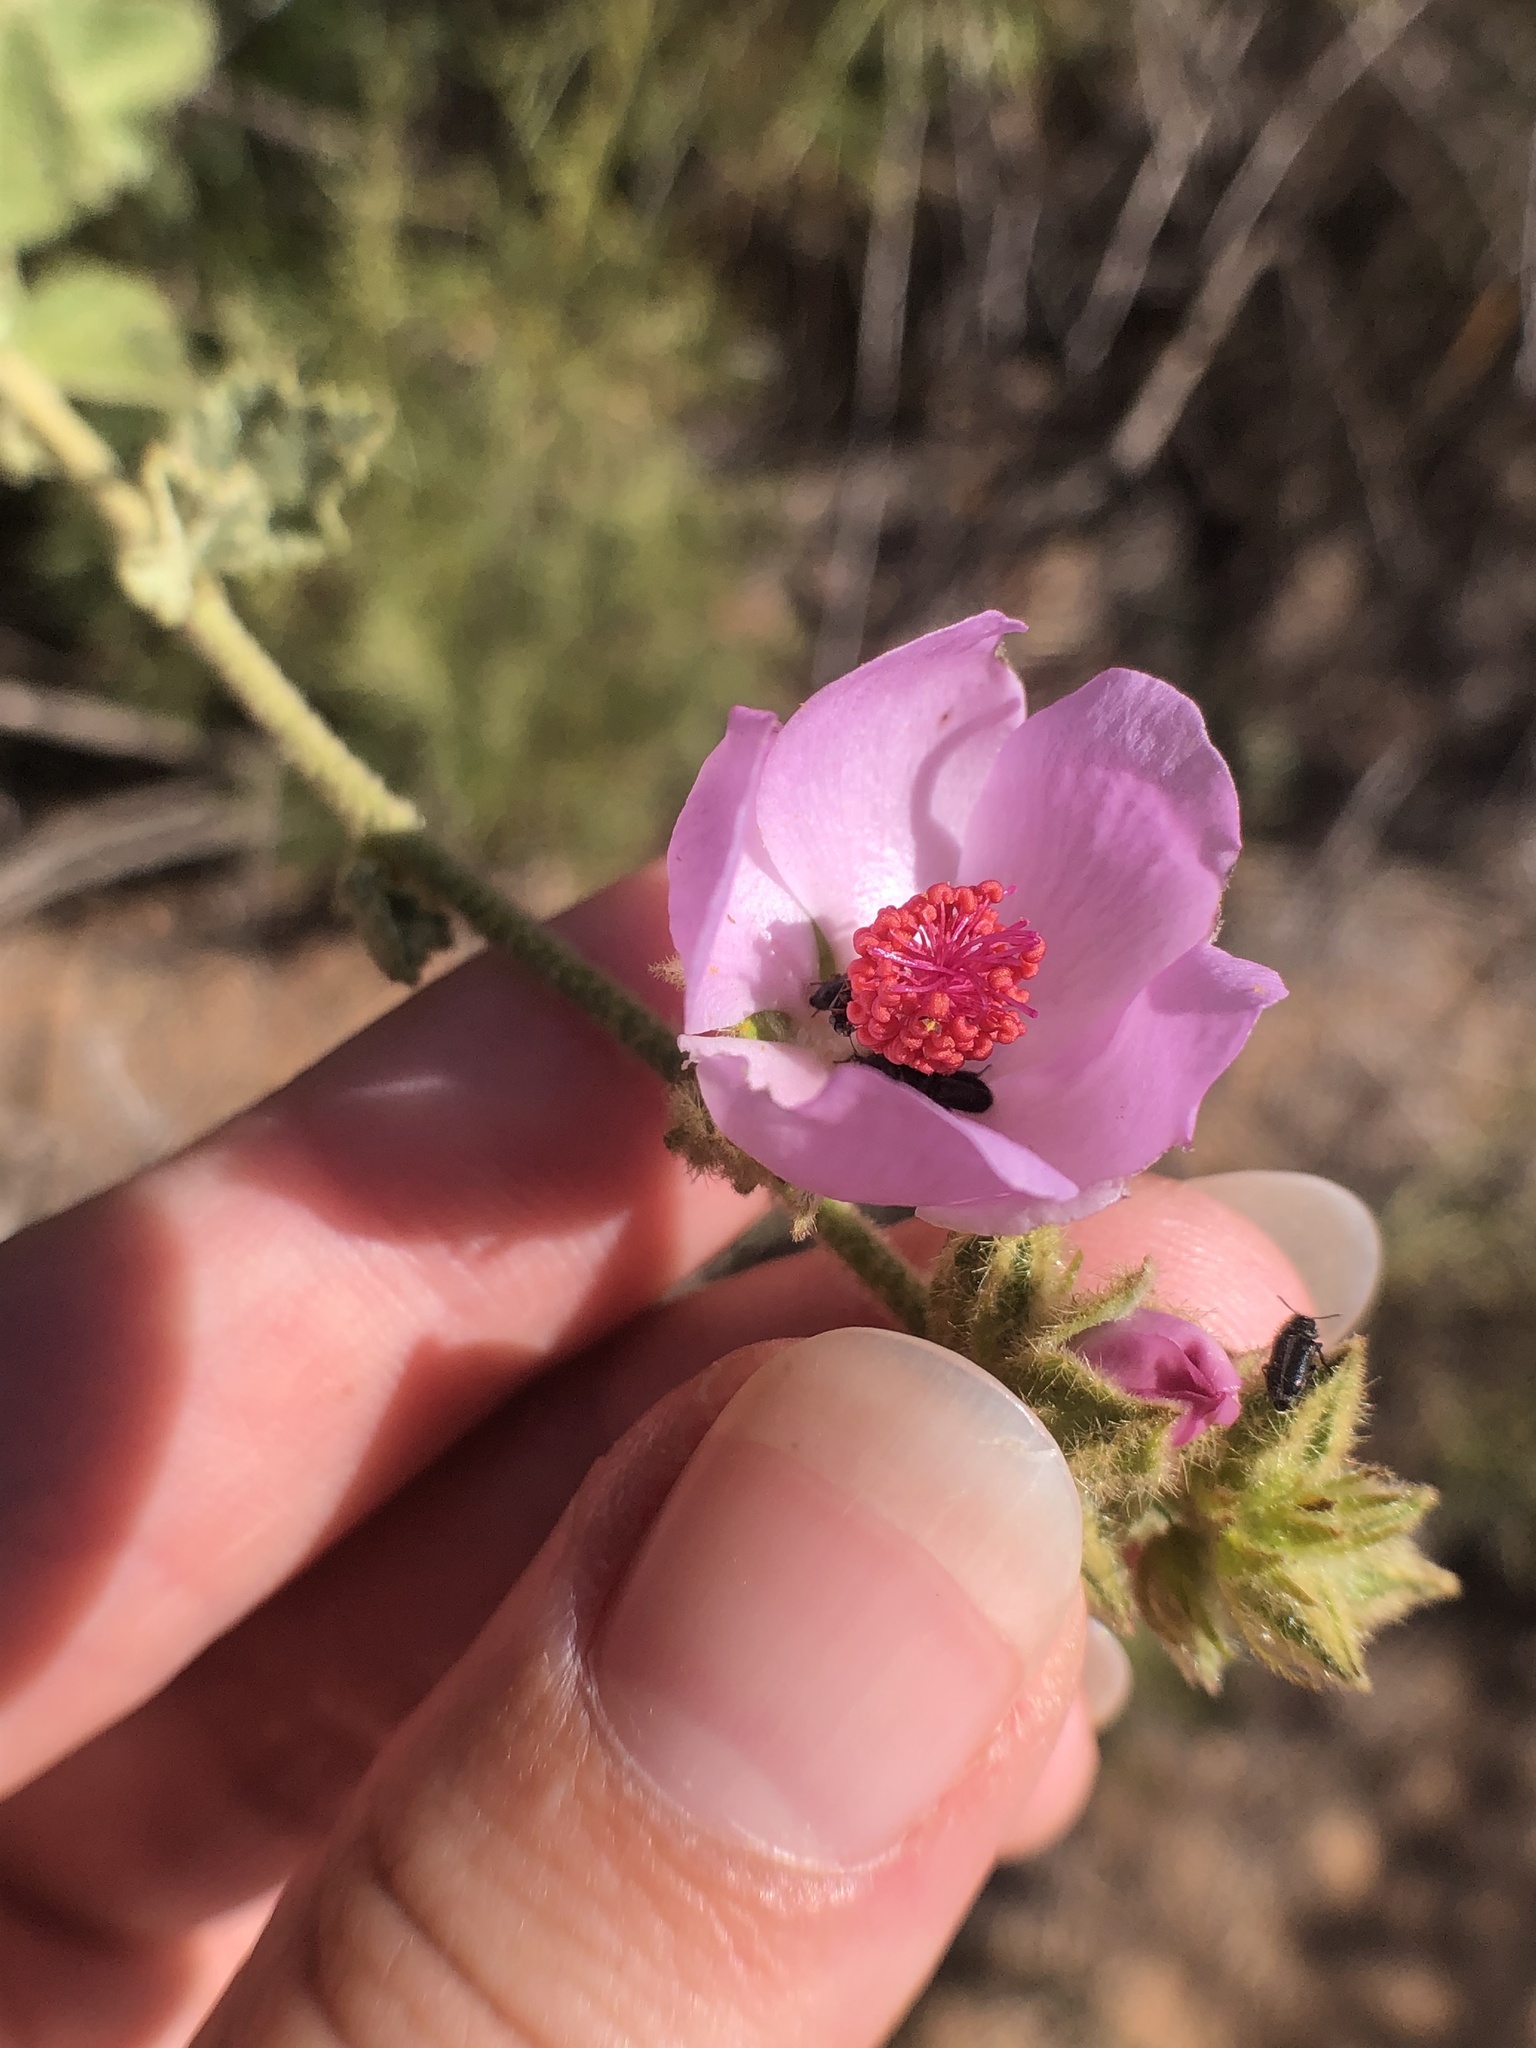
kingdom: Plantae
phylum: Tracheophyta
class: Magnoliopsida
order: Malvales
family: Malvaceae
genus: Malacothamnus
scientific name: Malacothamnus densiflorus
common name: Yellow-stem bush-mallow
